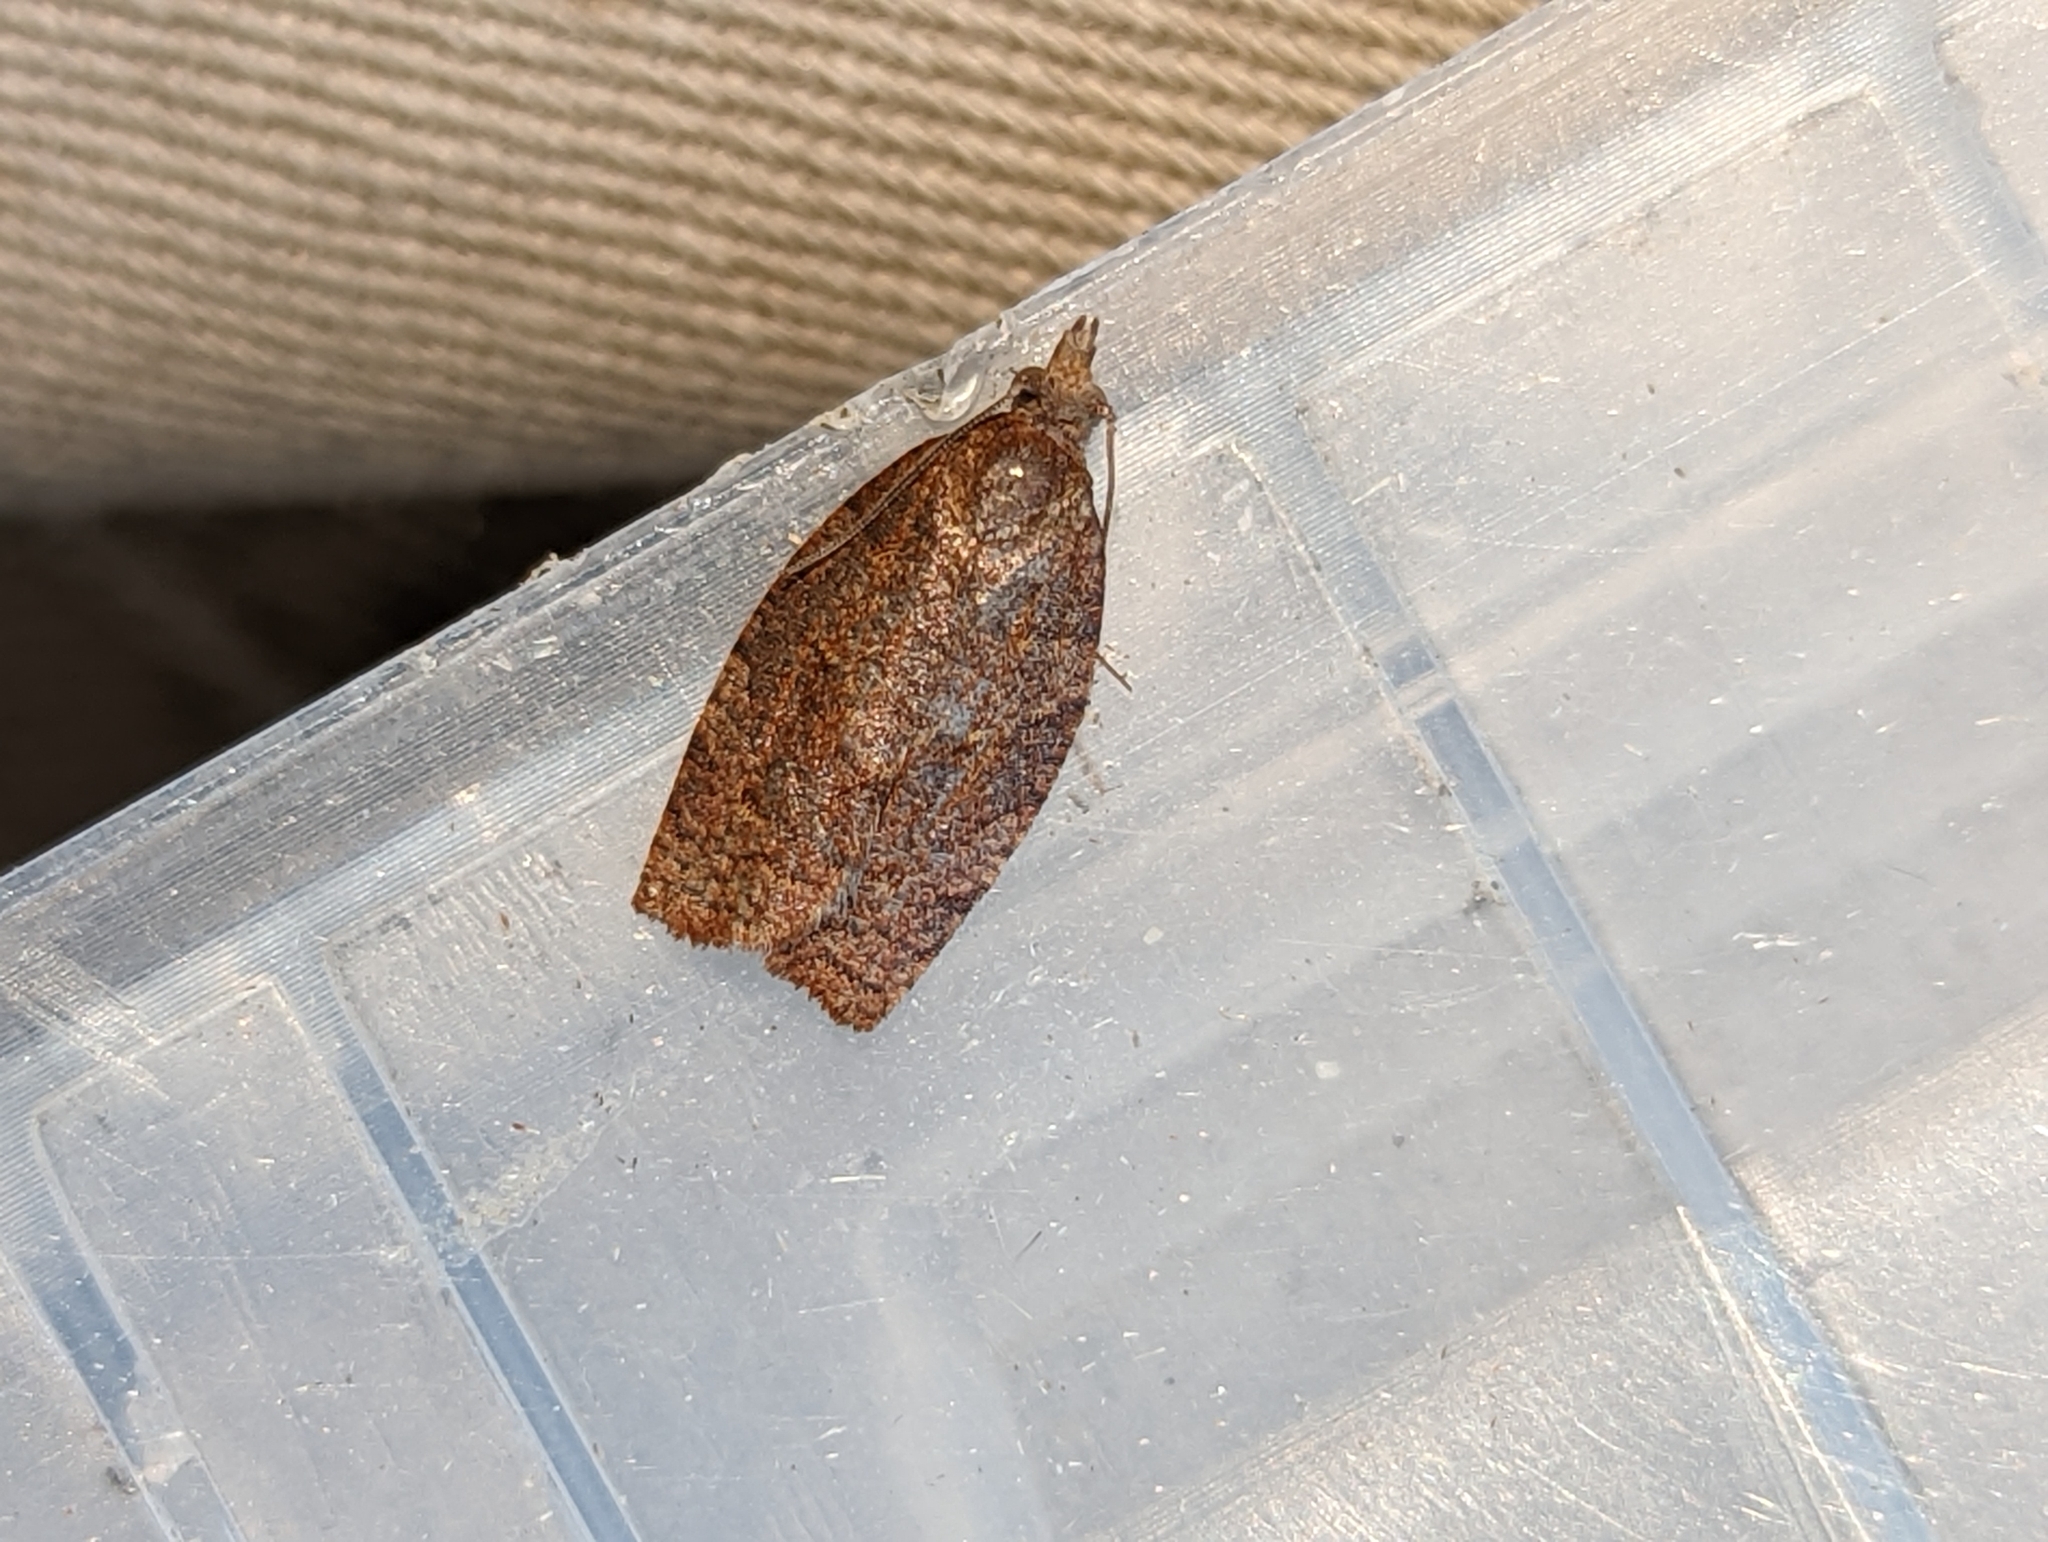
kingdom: Animalia
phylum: Arthropoda
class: Insecta
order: Lepidoptera
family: Tortricidae
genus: Pandemis
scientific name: Pandemis heparana
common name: Dark fruit-tree tortrix
